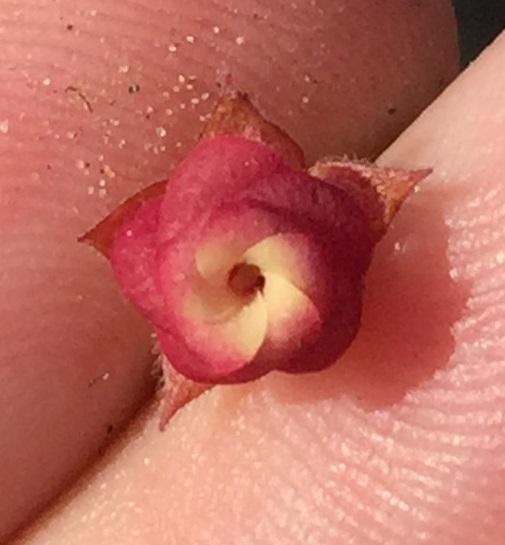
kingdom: Plantae
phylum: Tracheophyta
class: Magnoliopsida
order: Malvales
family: Malvaceae
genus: Hermannia
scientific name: Hermannia flammula
